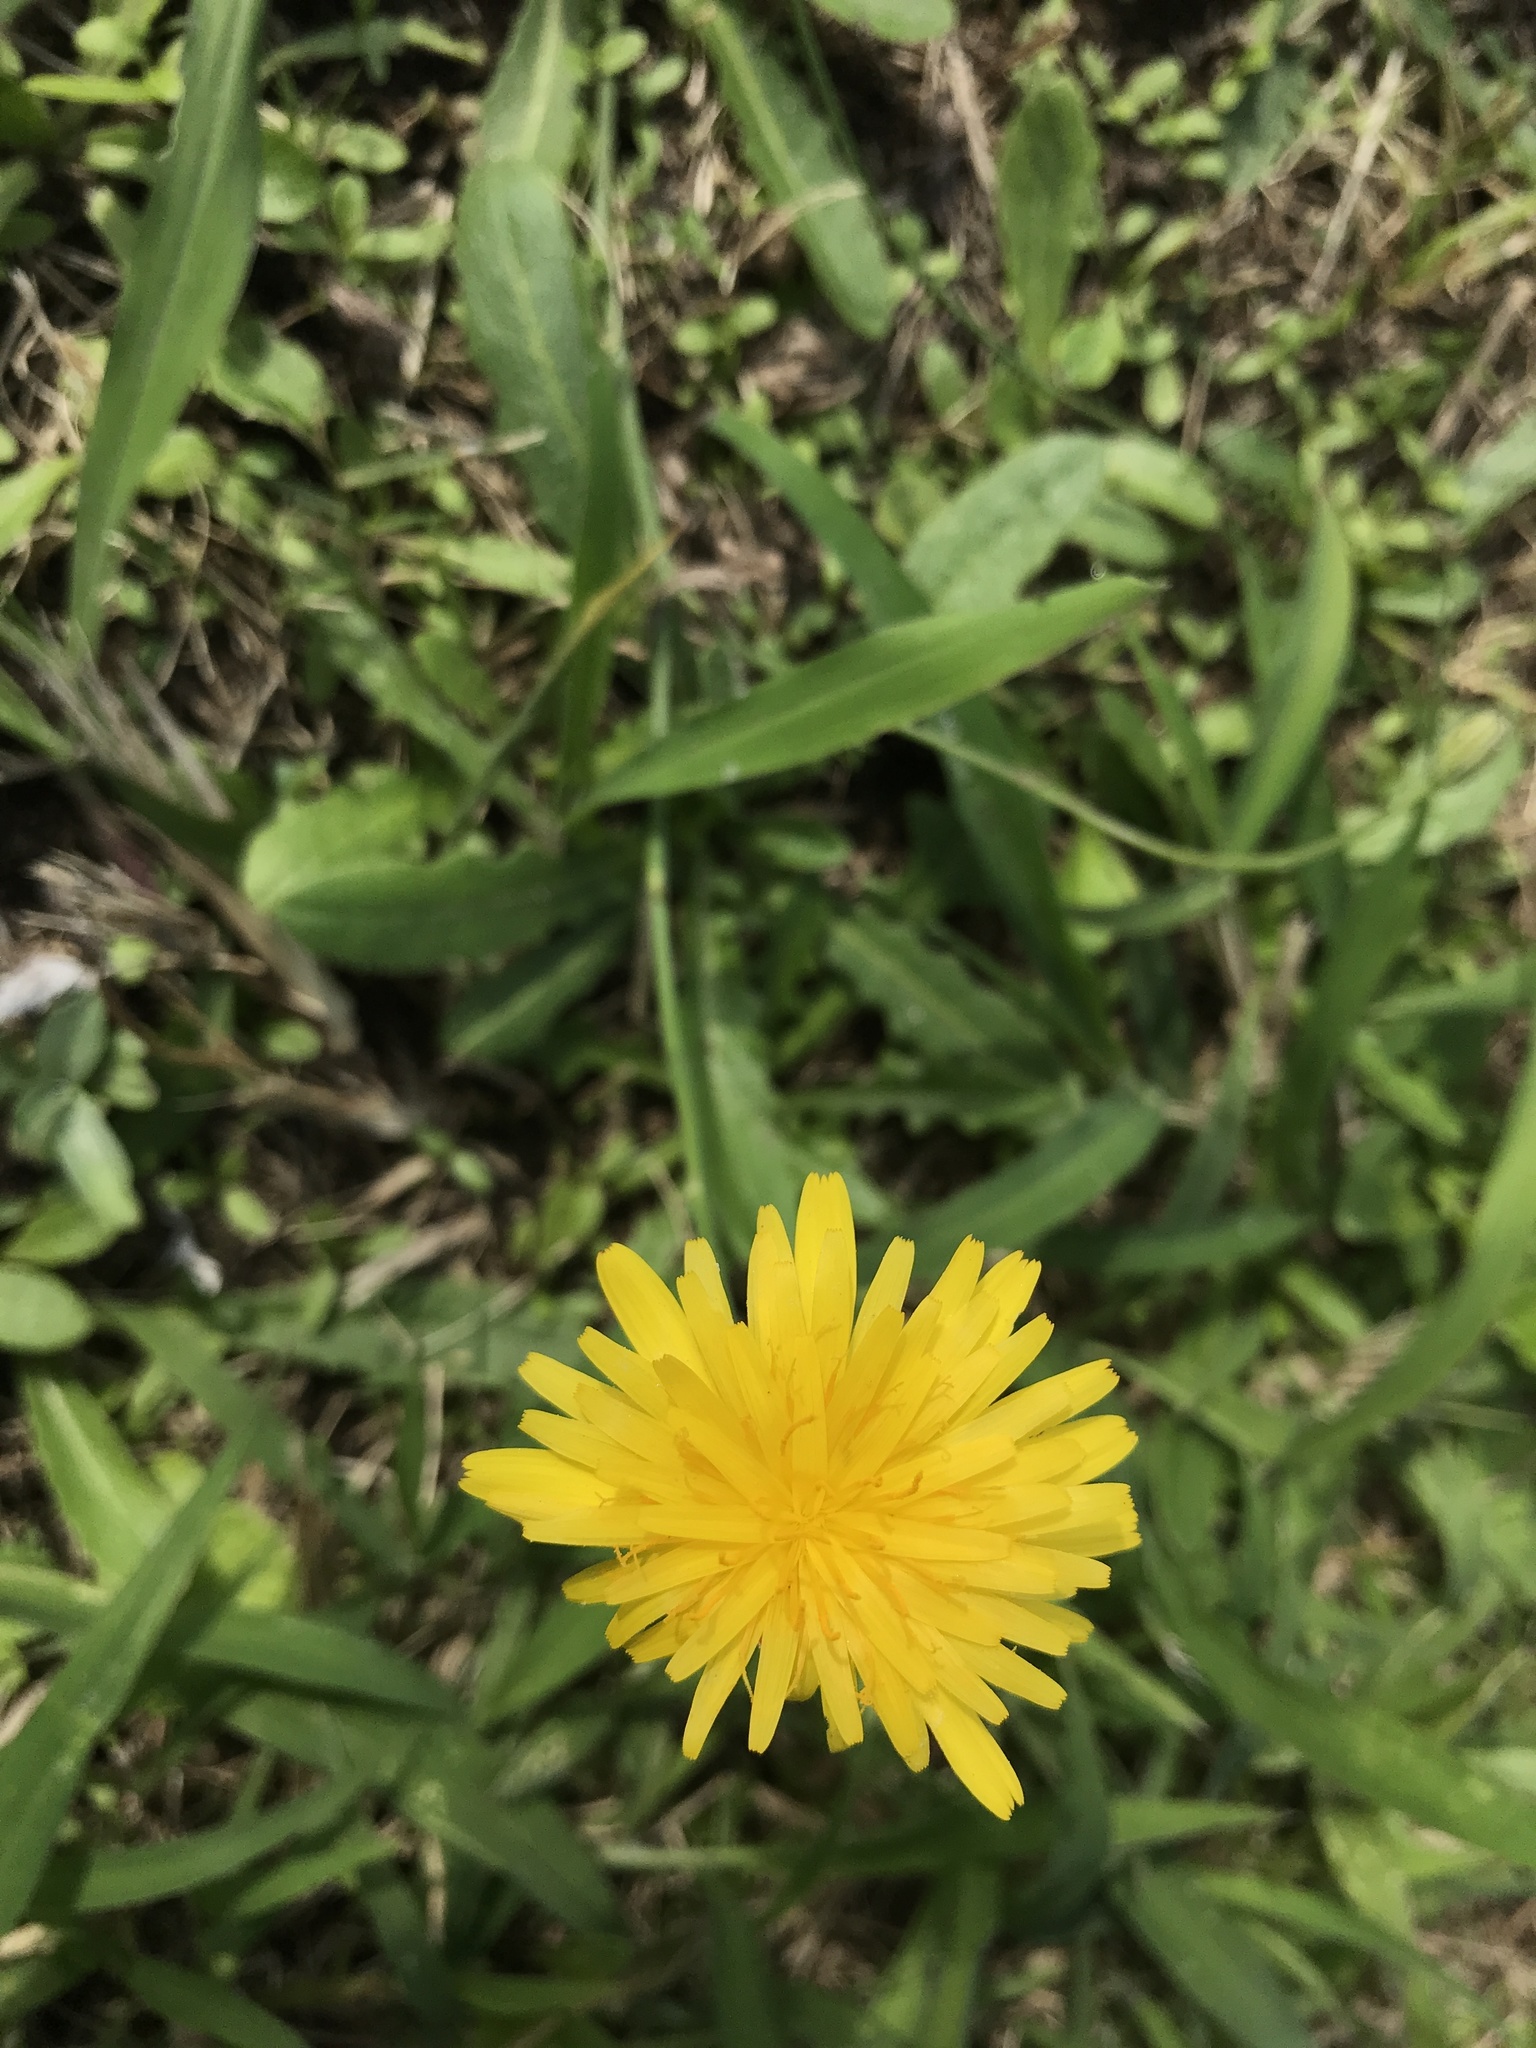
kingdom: Plantae
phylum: Tracheophyta
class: Magnoliopsida
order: Asterales
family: Asteraceae
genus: Hypochaeris
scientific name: Hypochaeris radicata
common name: Flatweed
